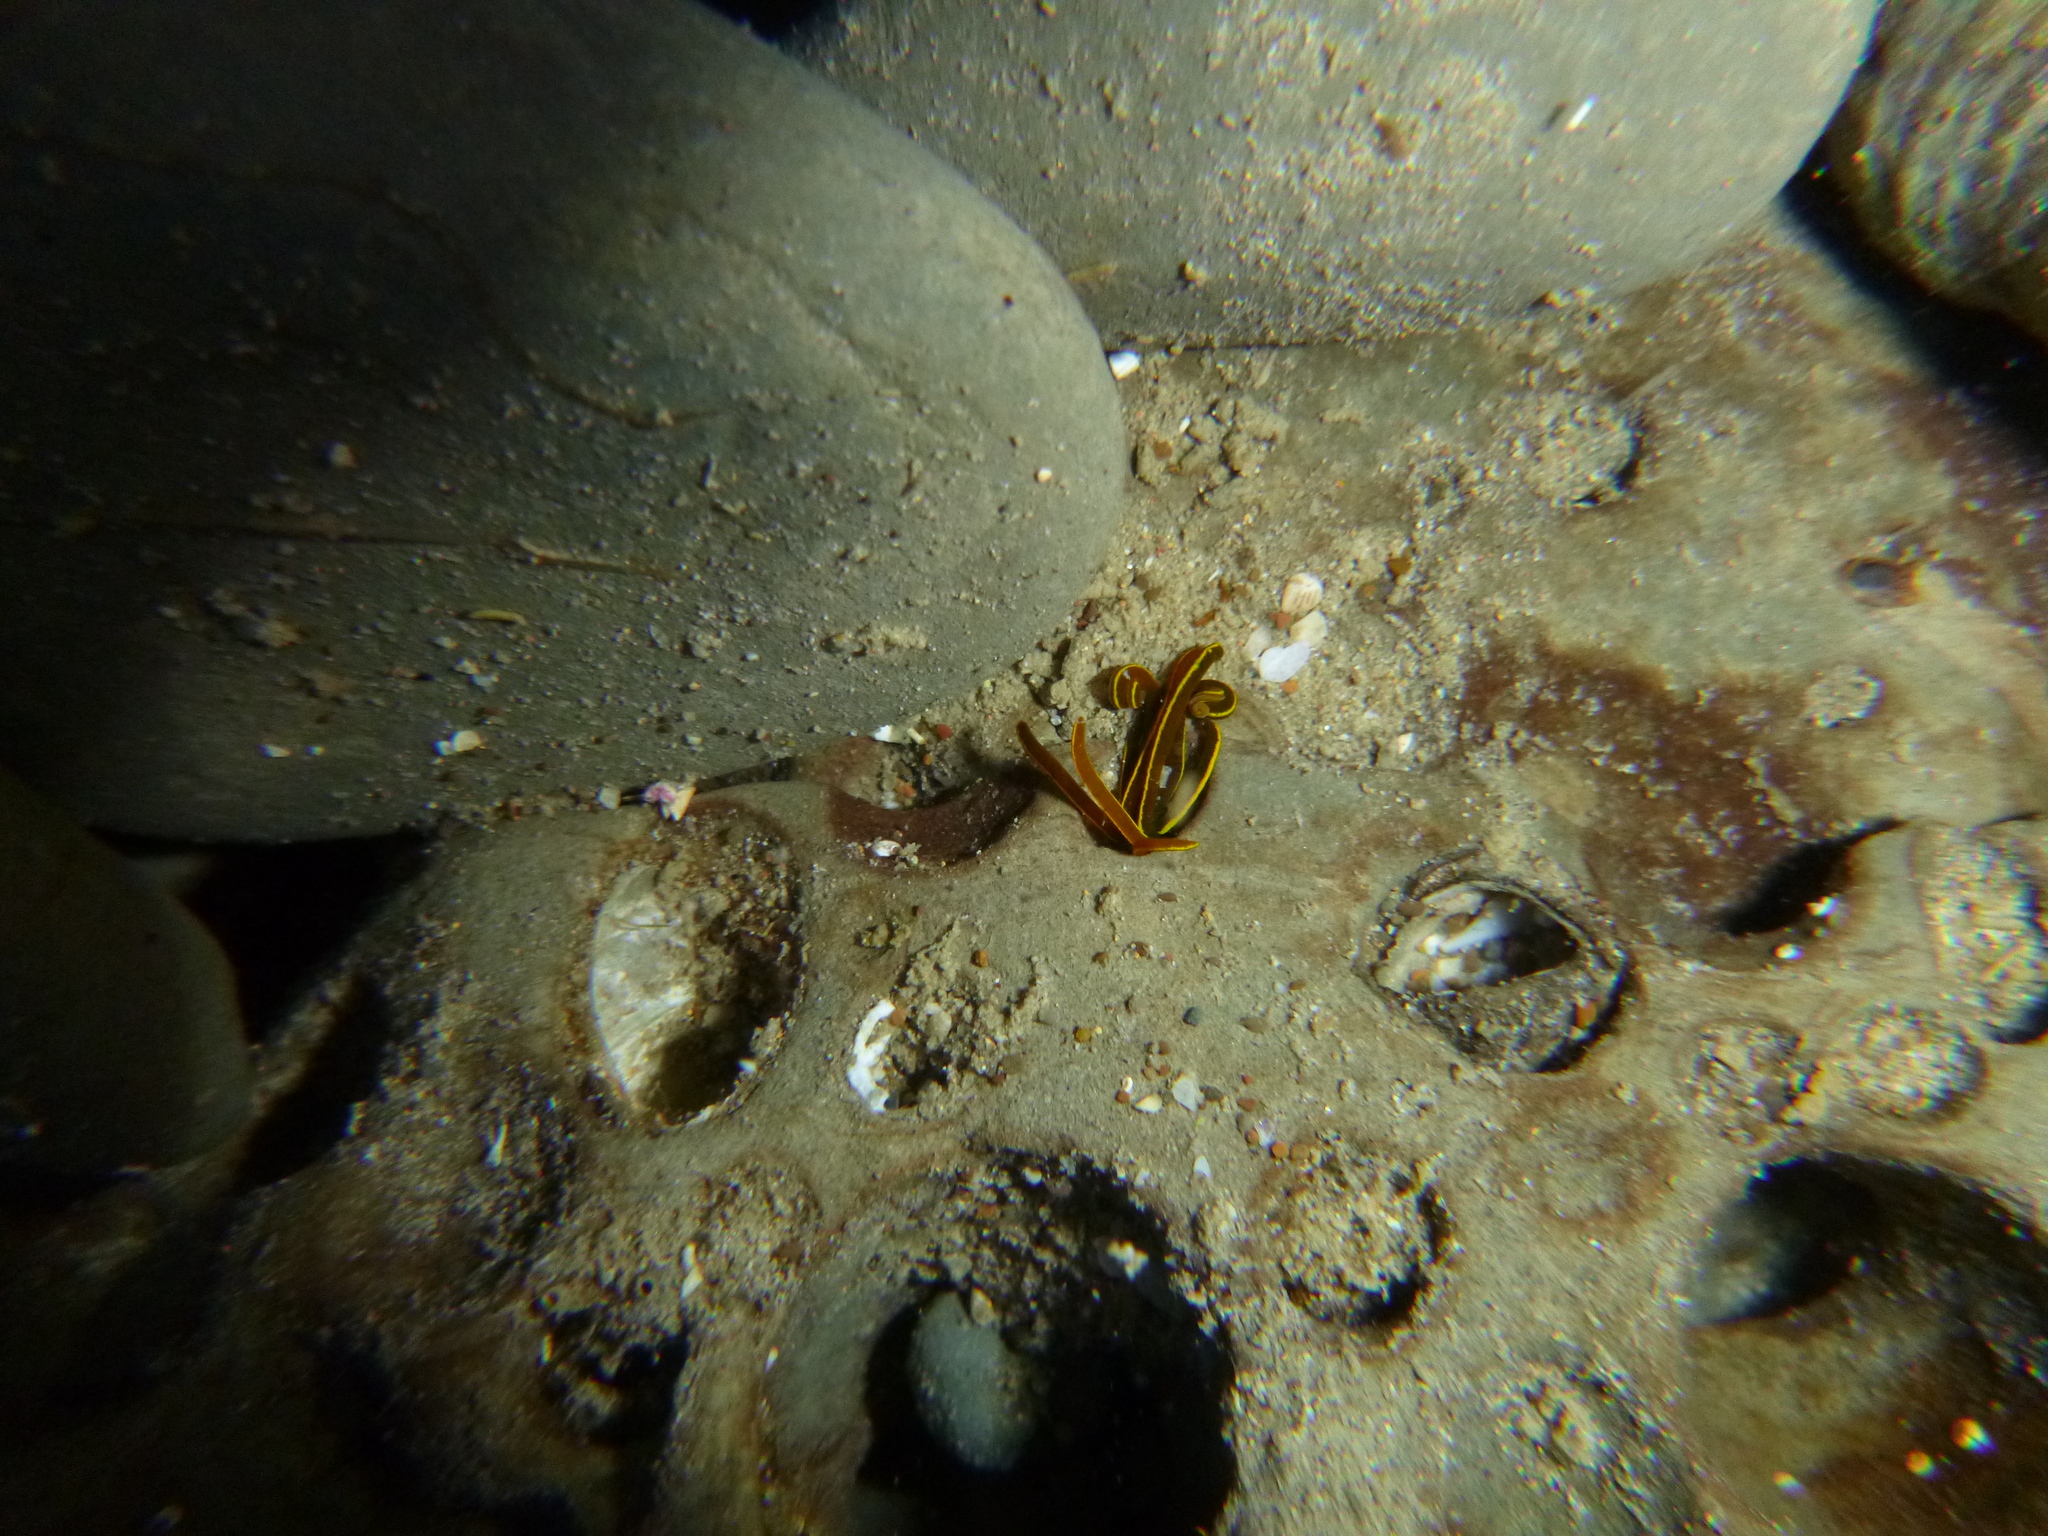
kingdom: Animalia
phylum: Annelida
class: Polychaeta
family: Acrocirridae
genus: Acrocirrus
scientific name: Acrocirrus
